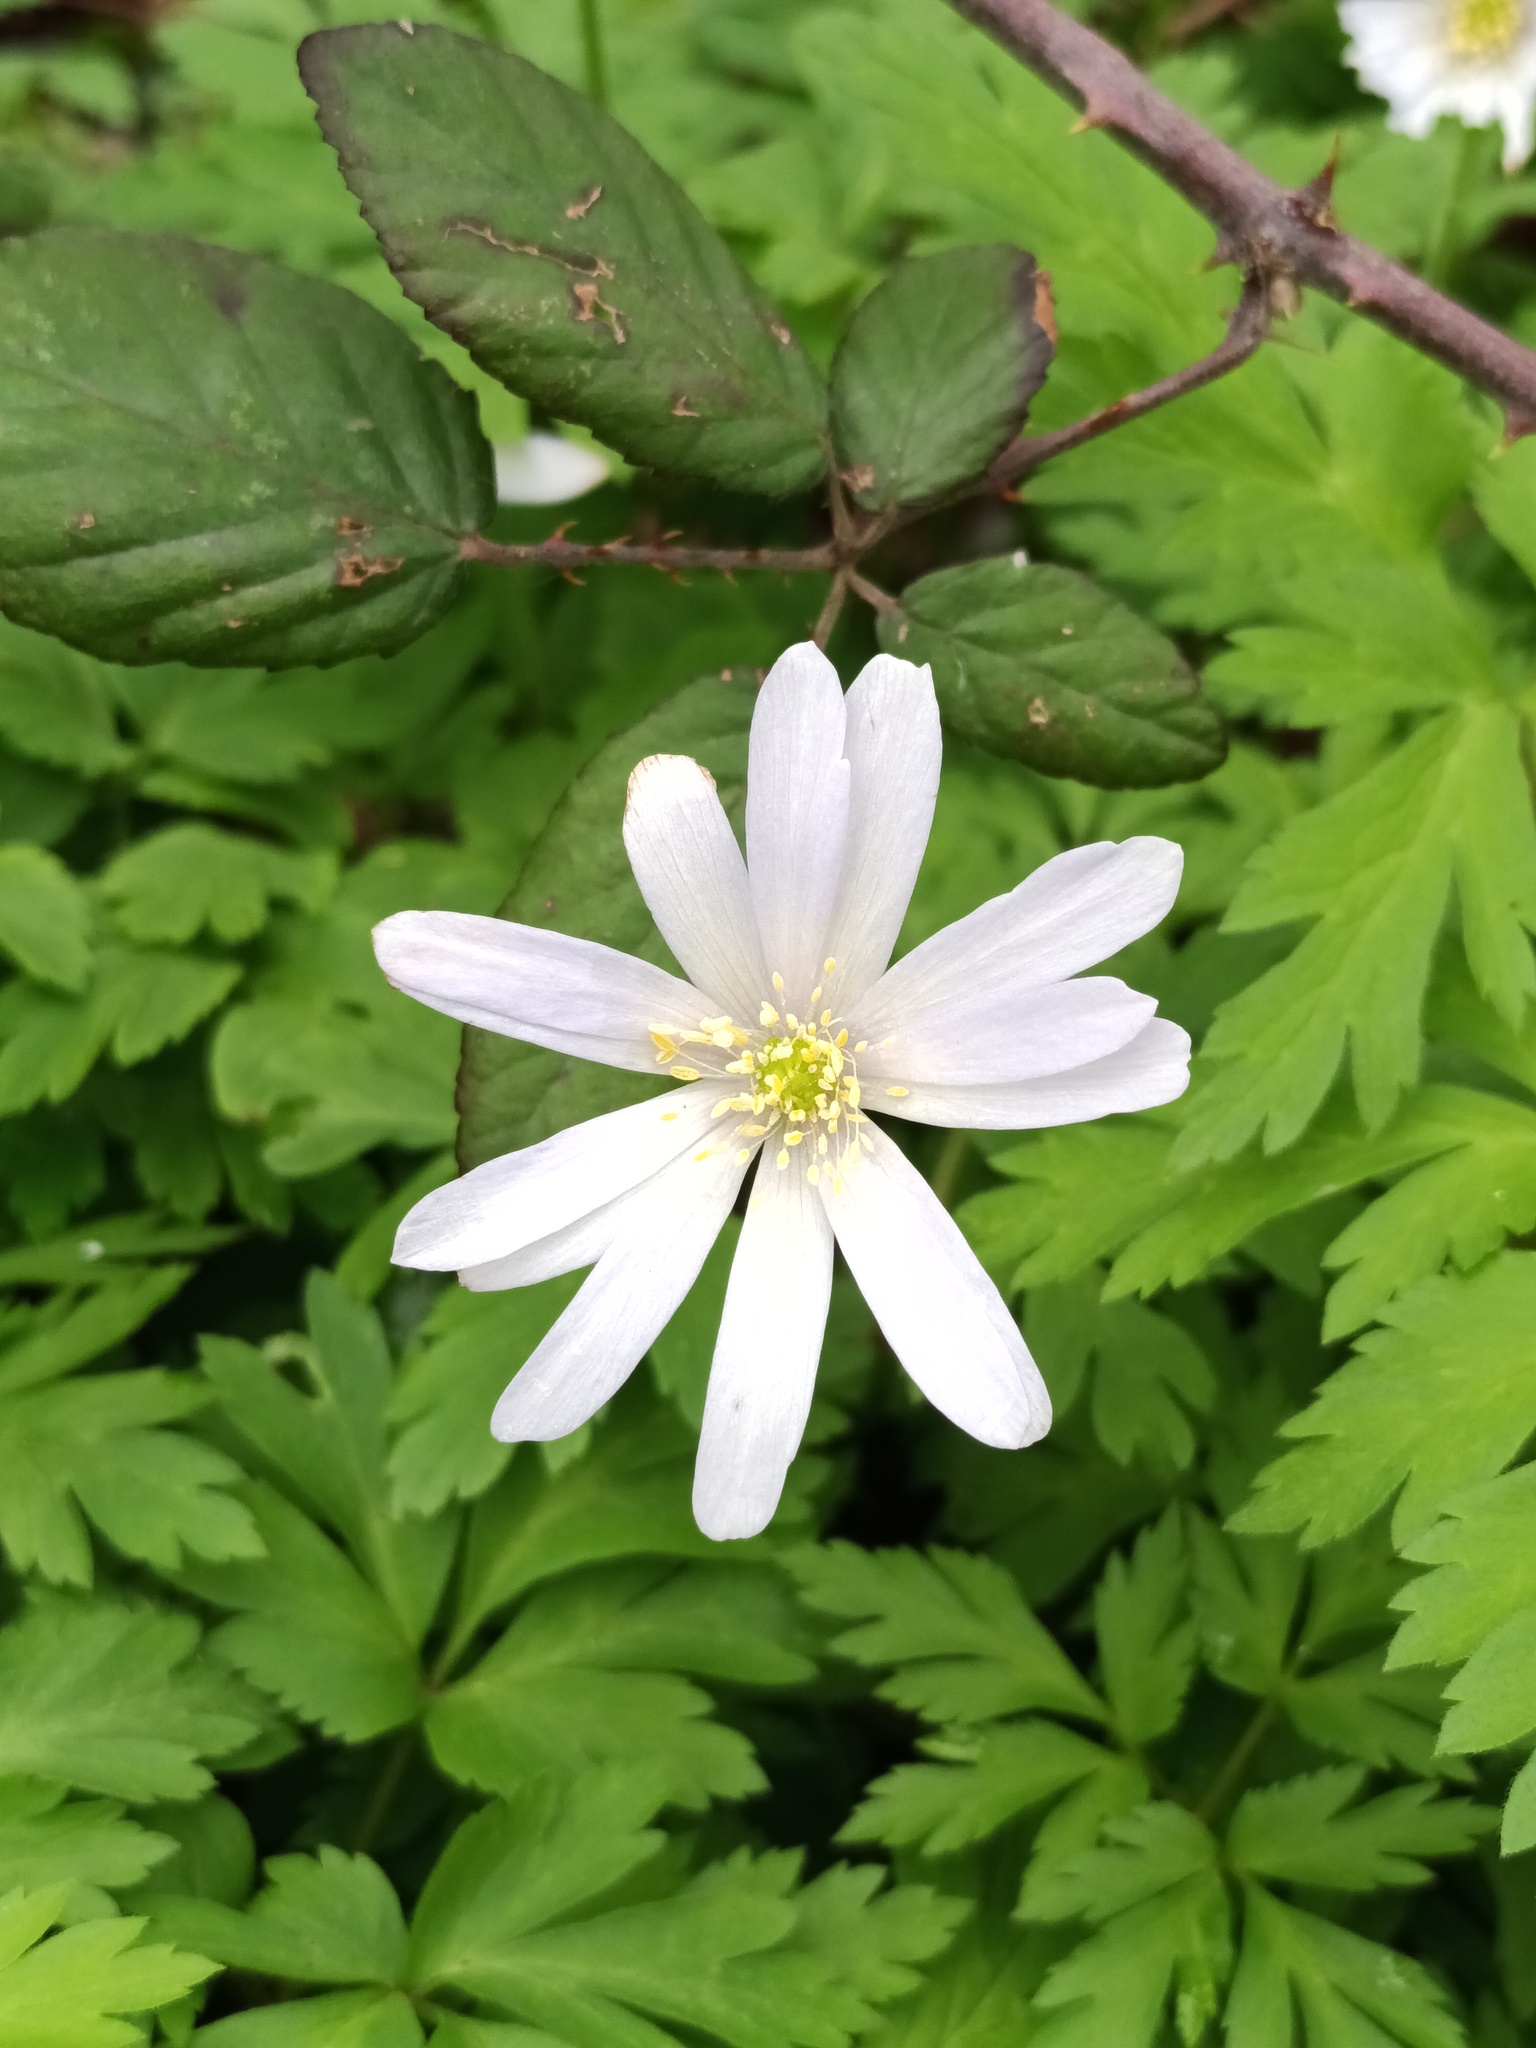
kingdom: Plantae
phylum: Tracheophyta
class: Magnoliopsida
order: Ranunculales
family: Ranunculaceae
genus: Anemone
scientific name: Anemone apennina
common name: Blue anemone
